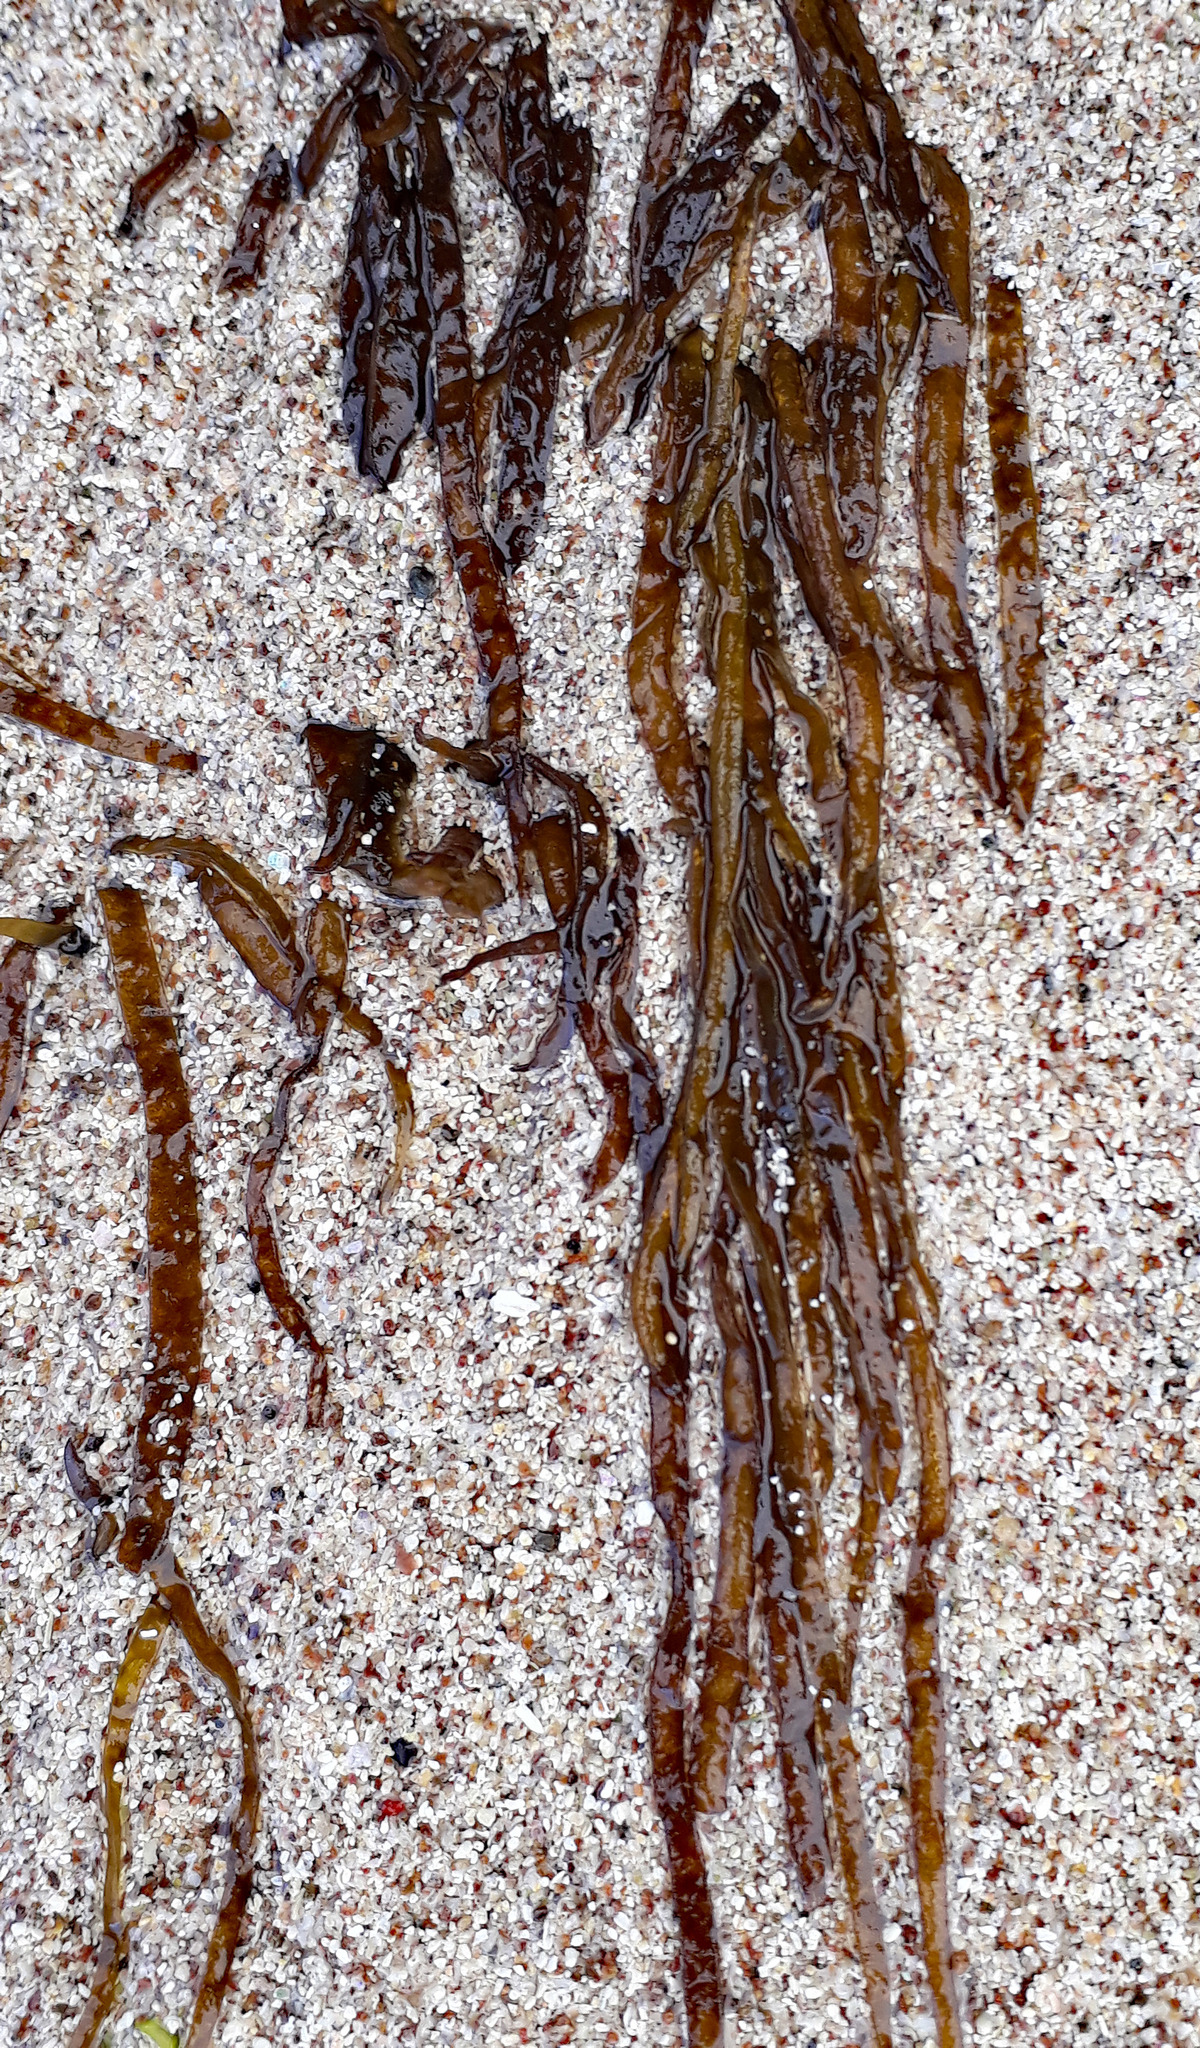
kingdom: Chromista
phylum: Ochrophyta
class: Phaeophyceae
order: Ectocarpales
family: Chordariaceae
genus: Chordaria
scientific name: Chordaria cladosiphon
